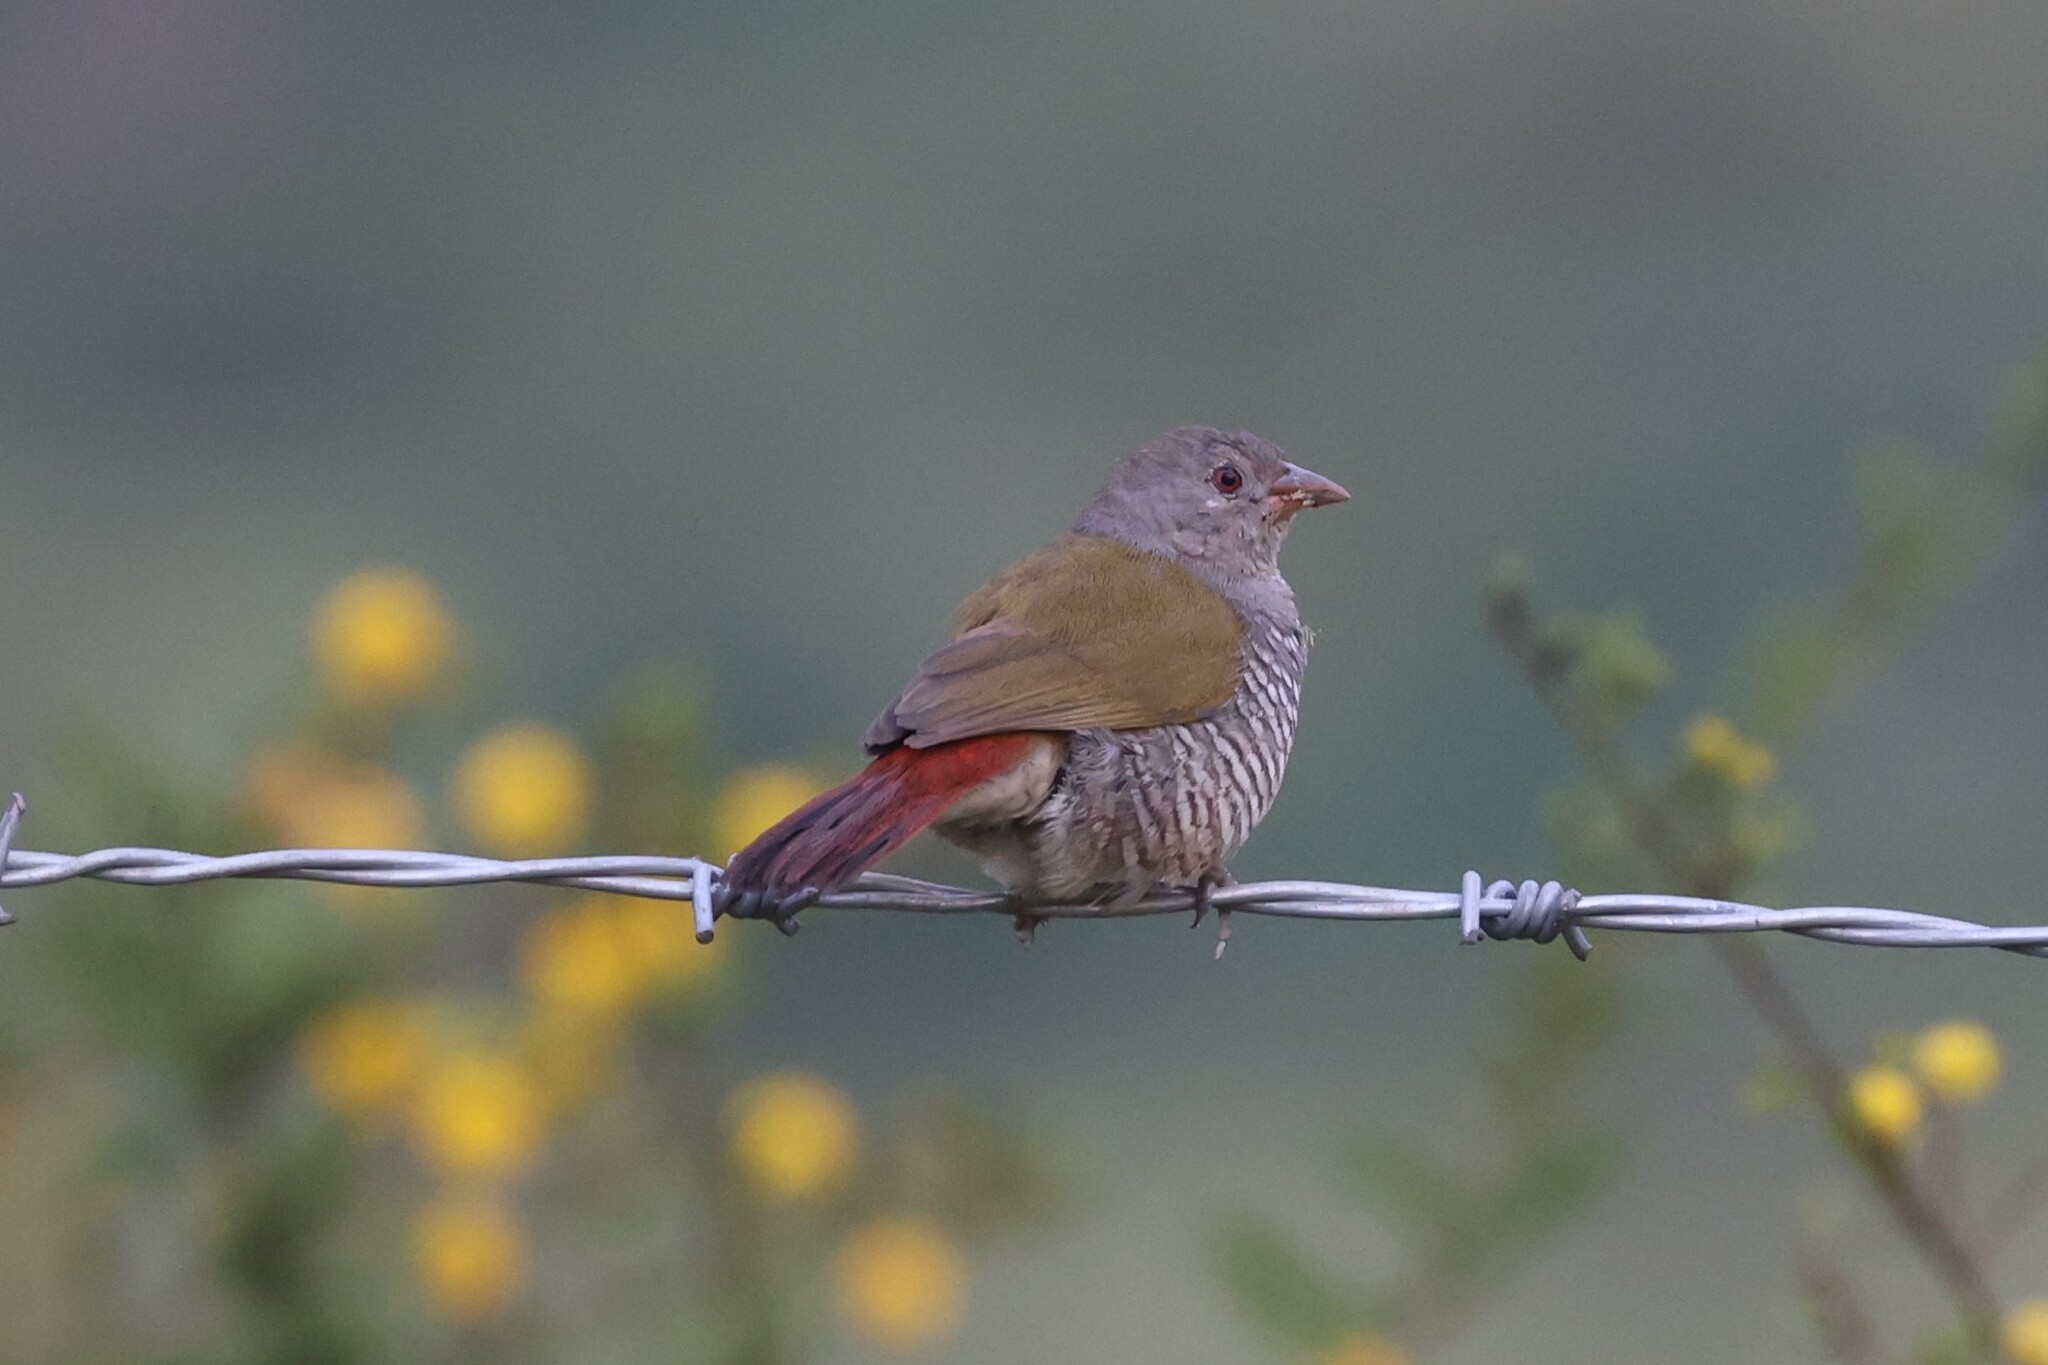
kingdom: Animalia
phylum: Chordata
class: Aves
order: Passeriformes
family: Estrildidae
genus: Pytilia
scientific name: Pytilia melba
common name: Green-winged pytilia
